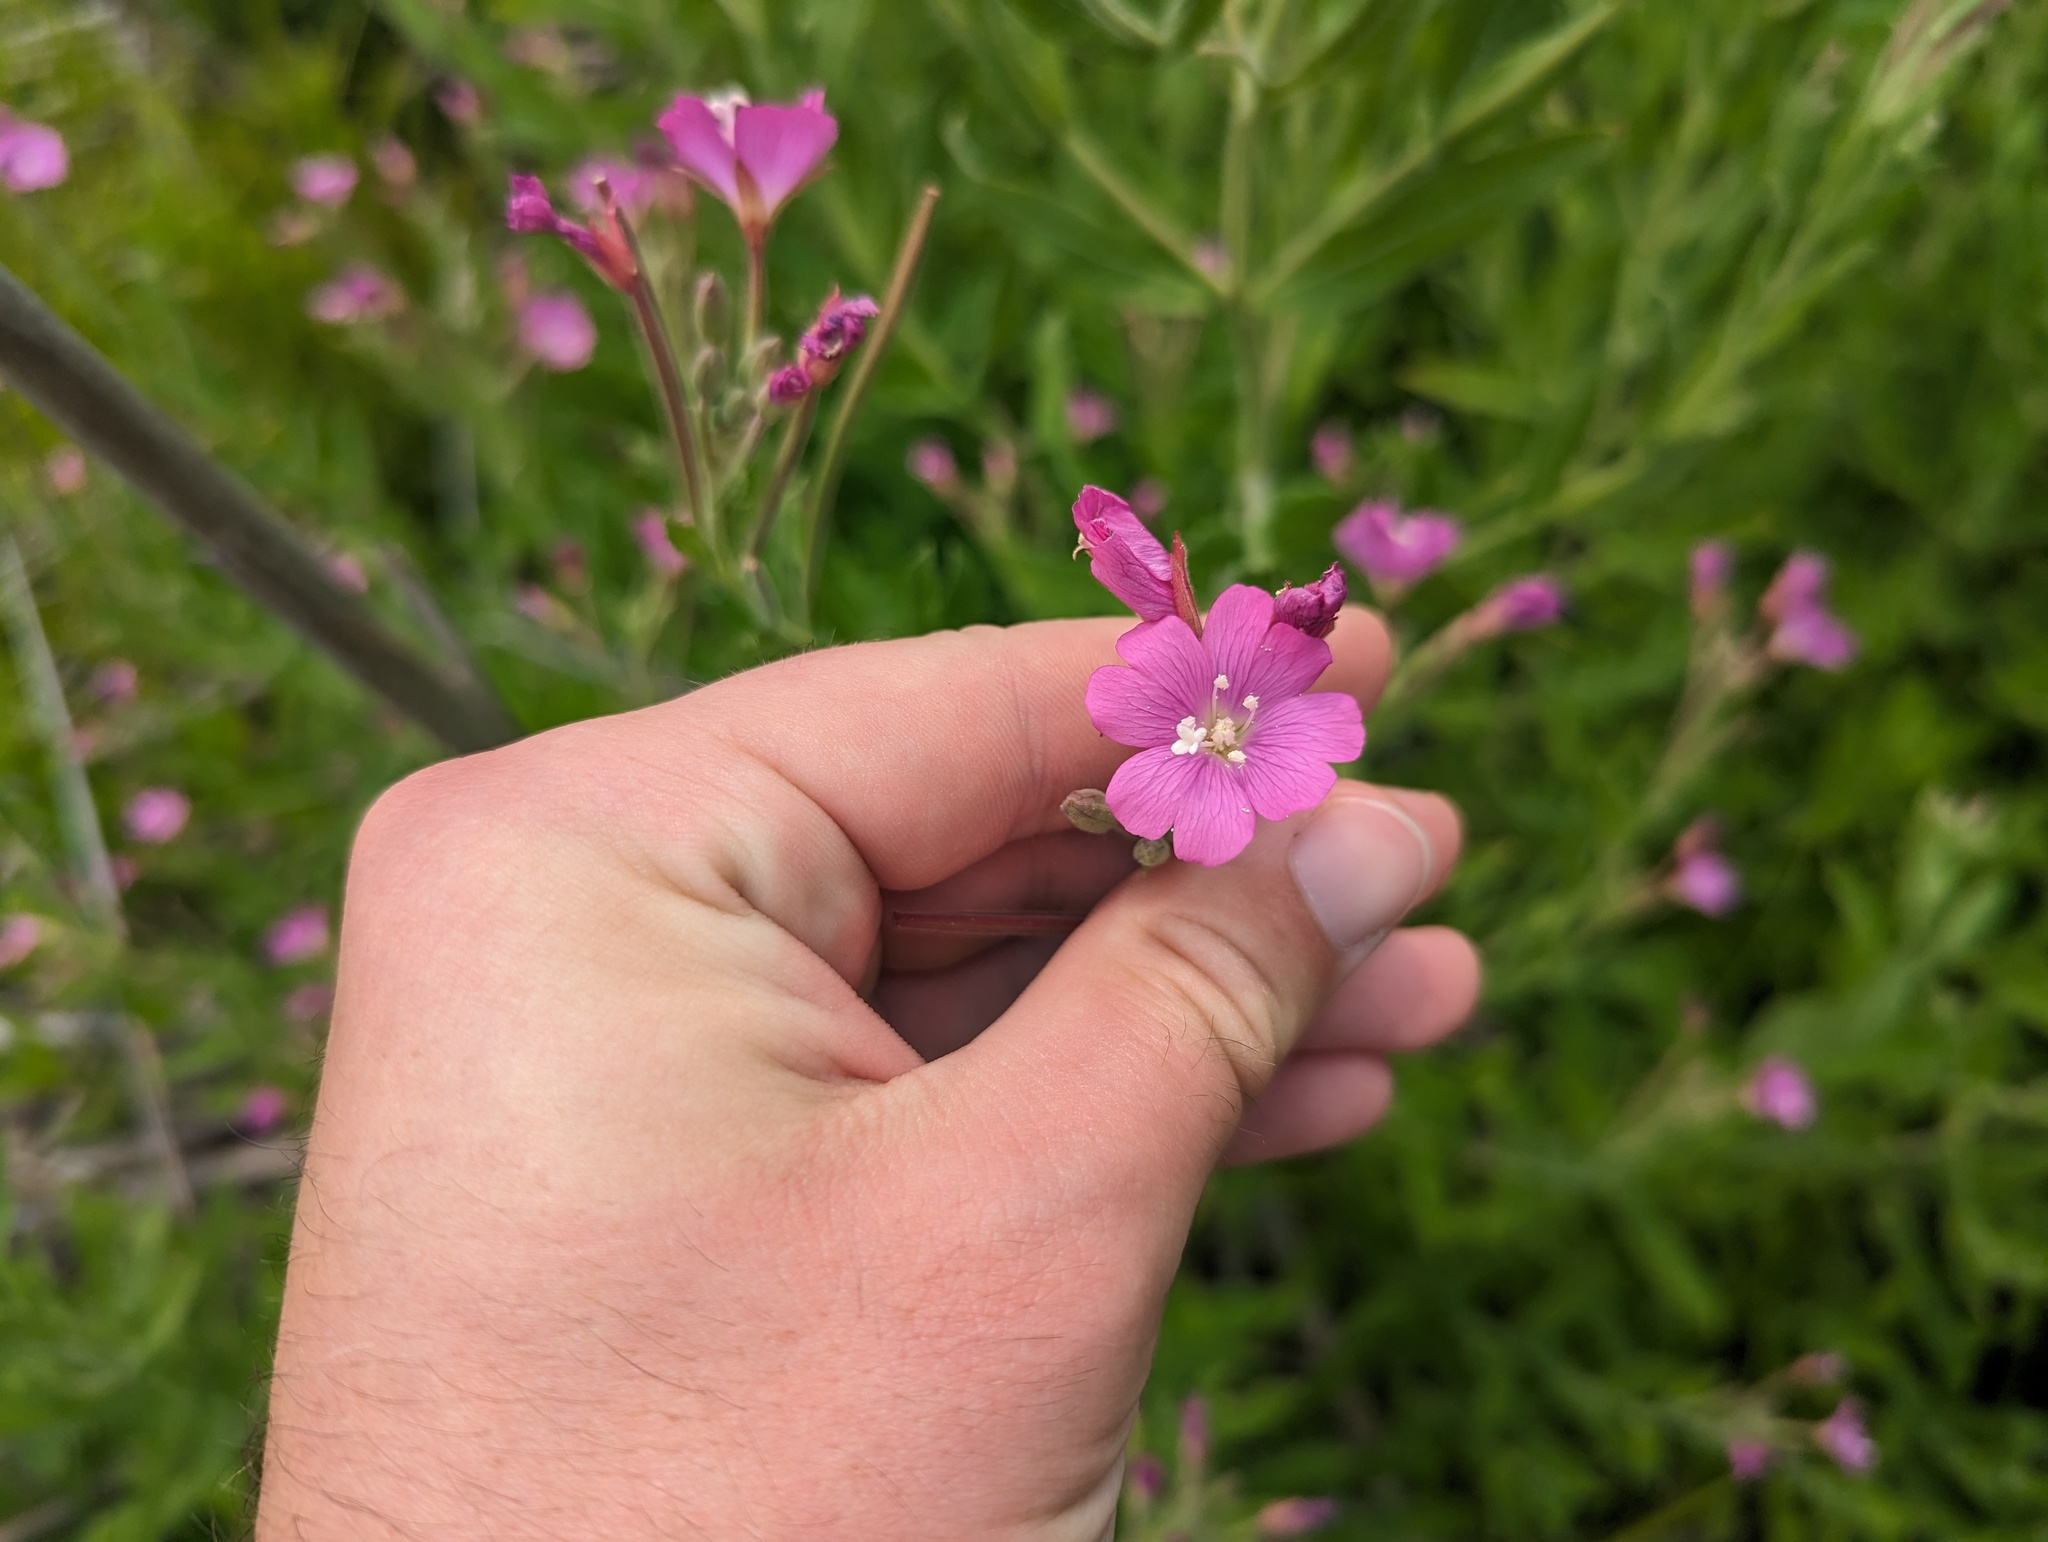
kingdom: Plantae
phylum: Tracheophyta
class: Magnoliopsida
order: Myrtales
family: Onagraceae
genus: Epilobium
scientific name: Epilobium hirsutum
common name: Great willowherb
